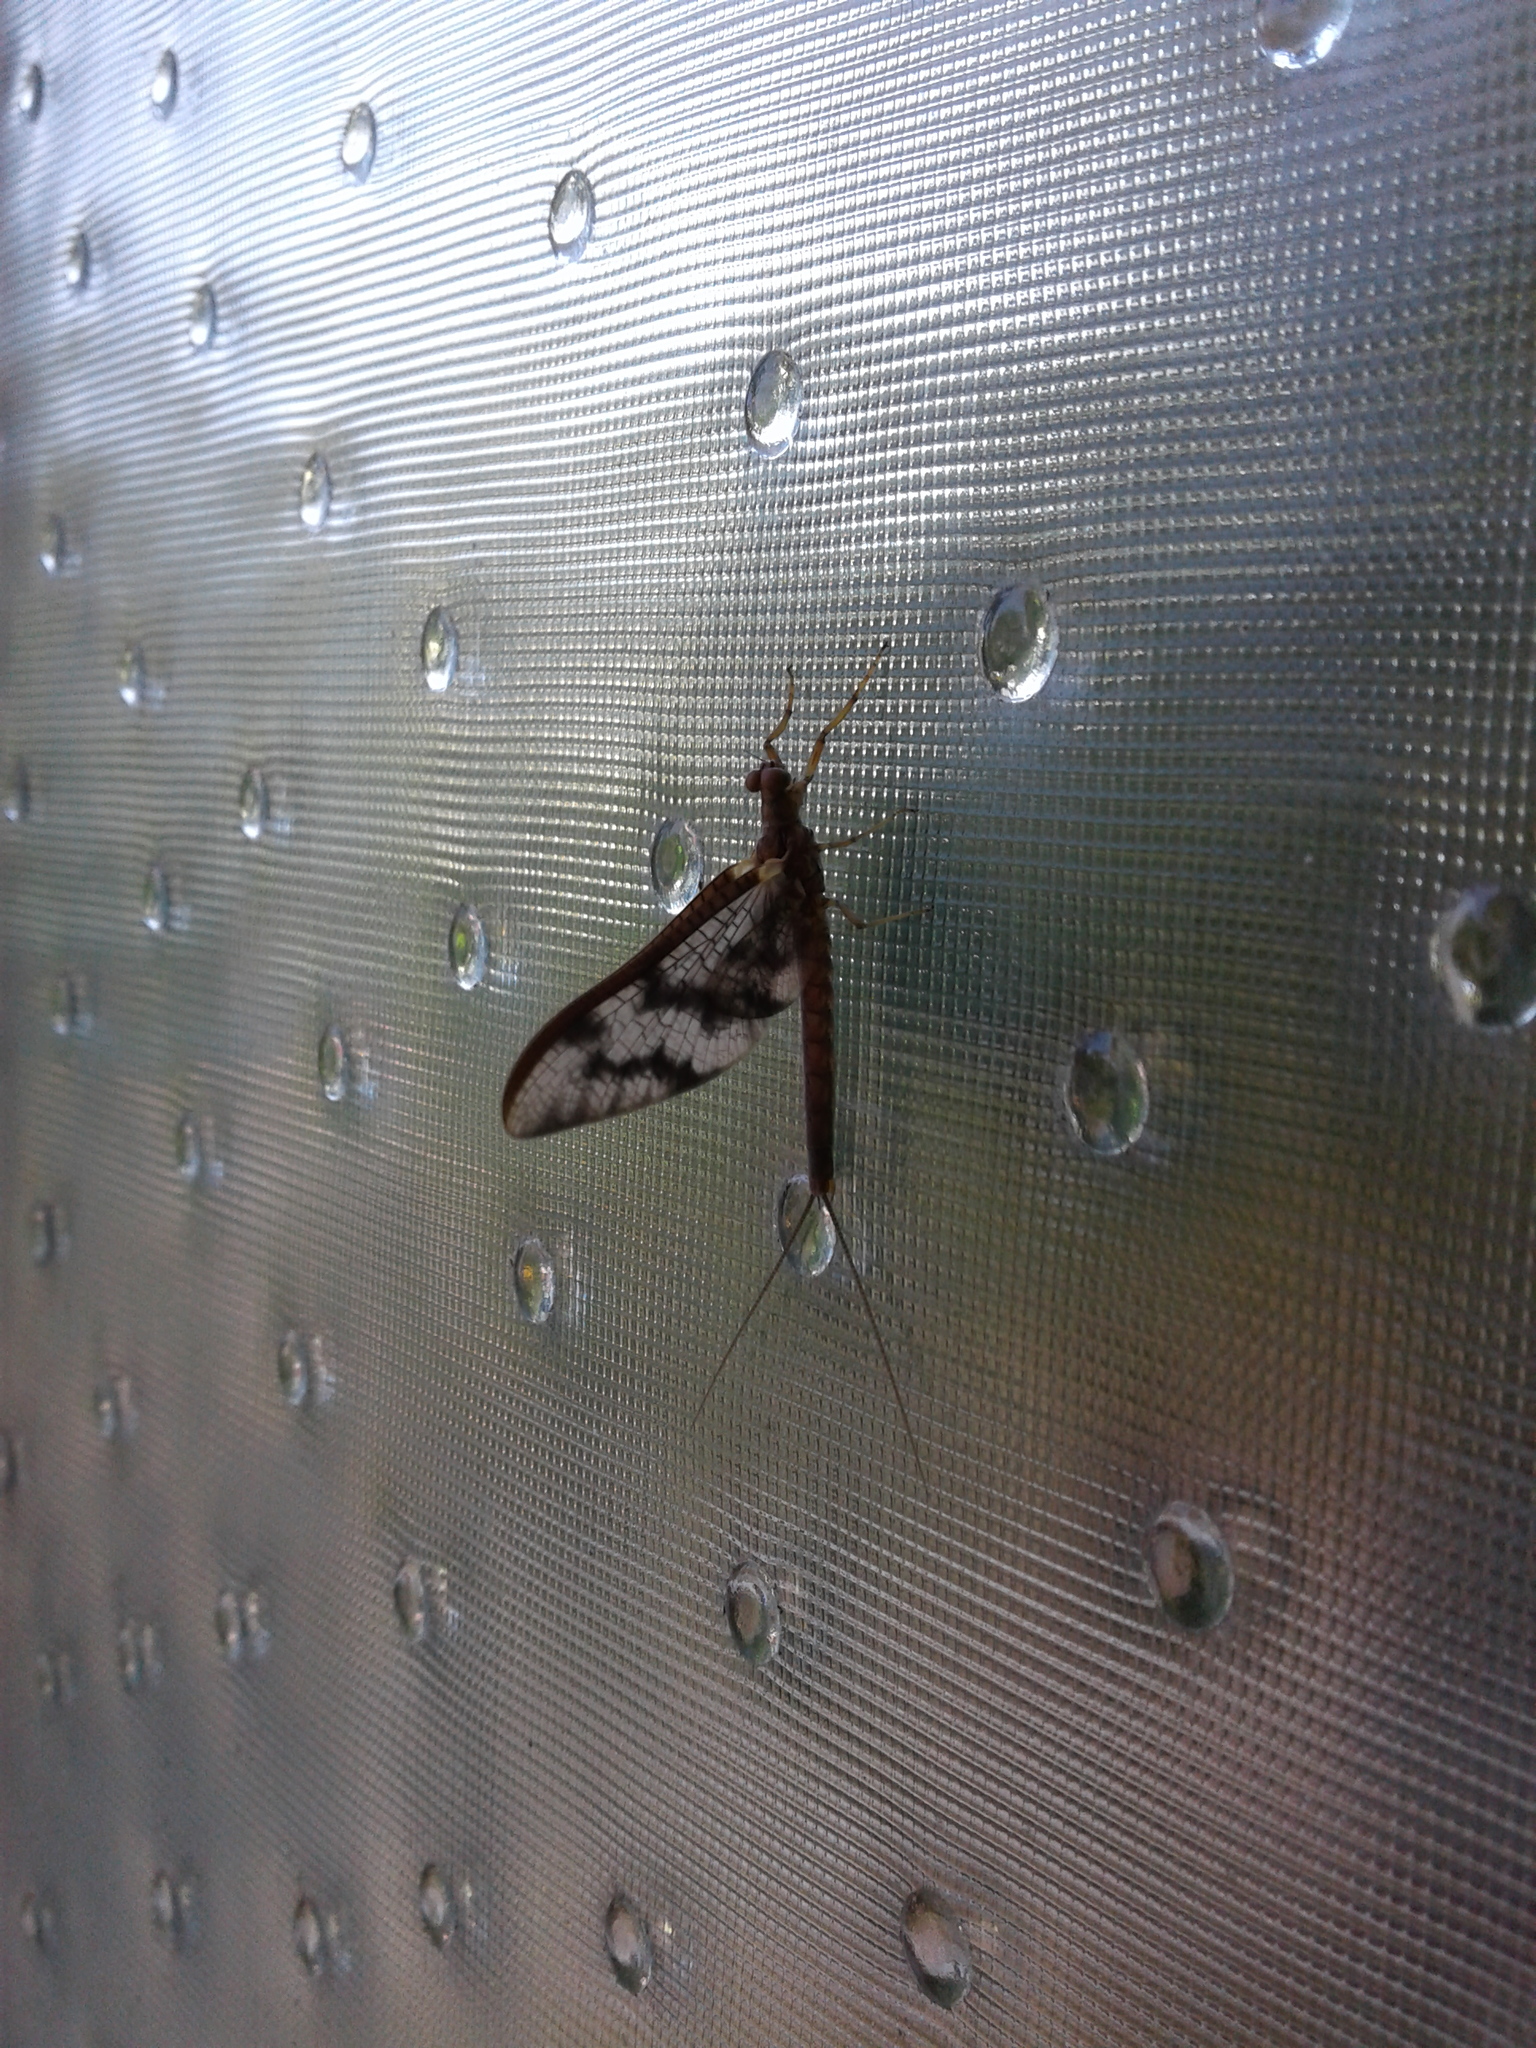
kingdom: Animalia
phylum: Arthropoda
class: Insecta
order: Ephemeroptera
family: Ichthybotidae
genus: Ichthybotus
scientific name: Ichthybotus hudsoni
